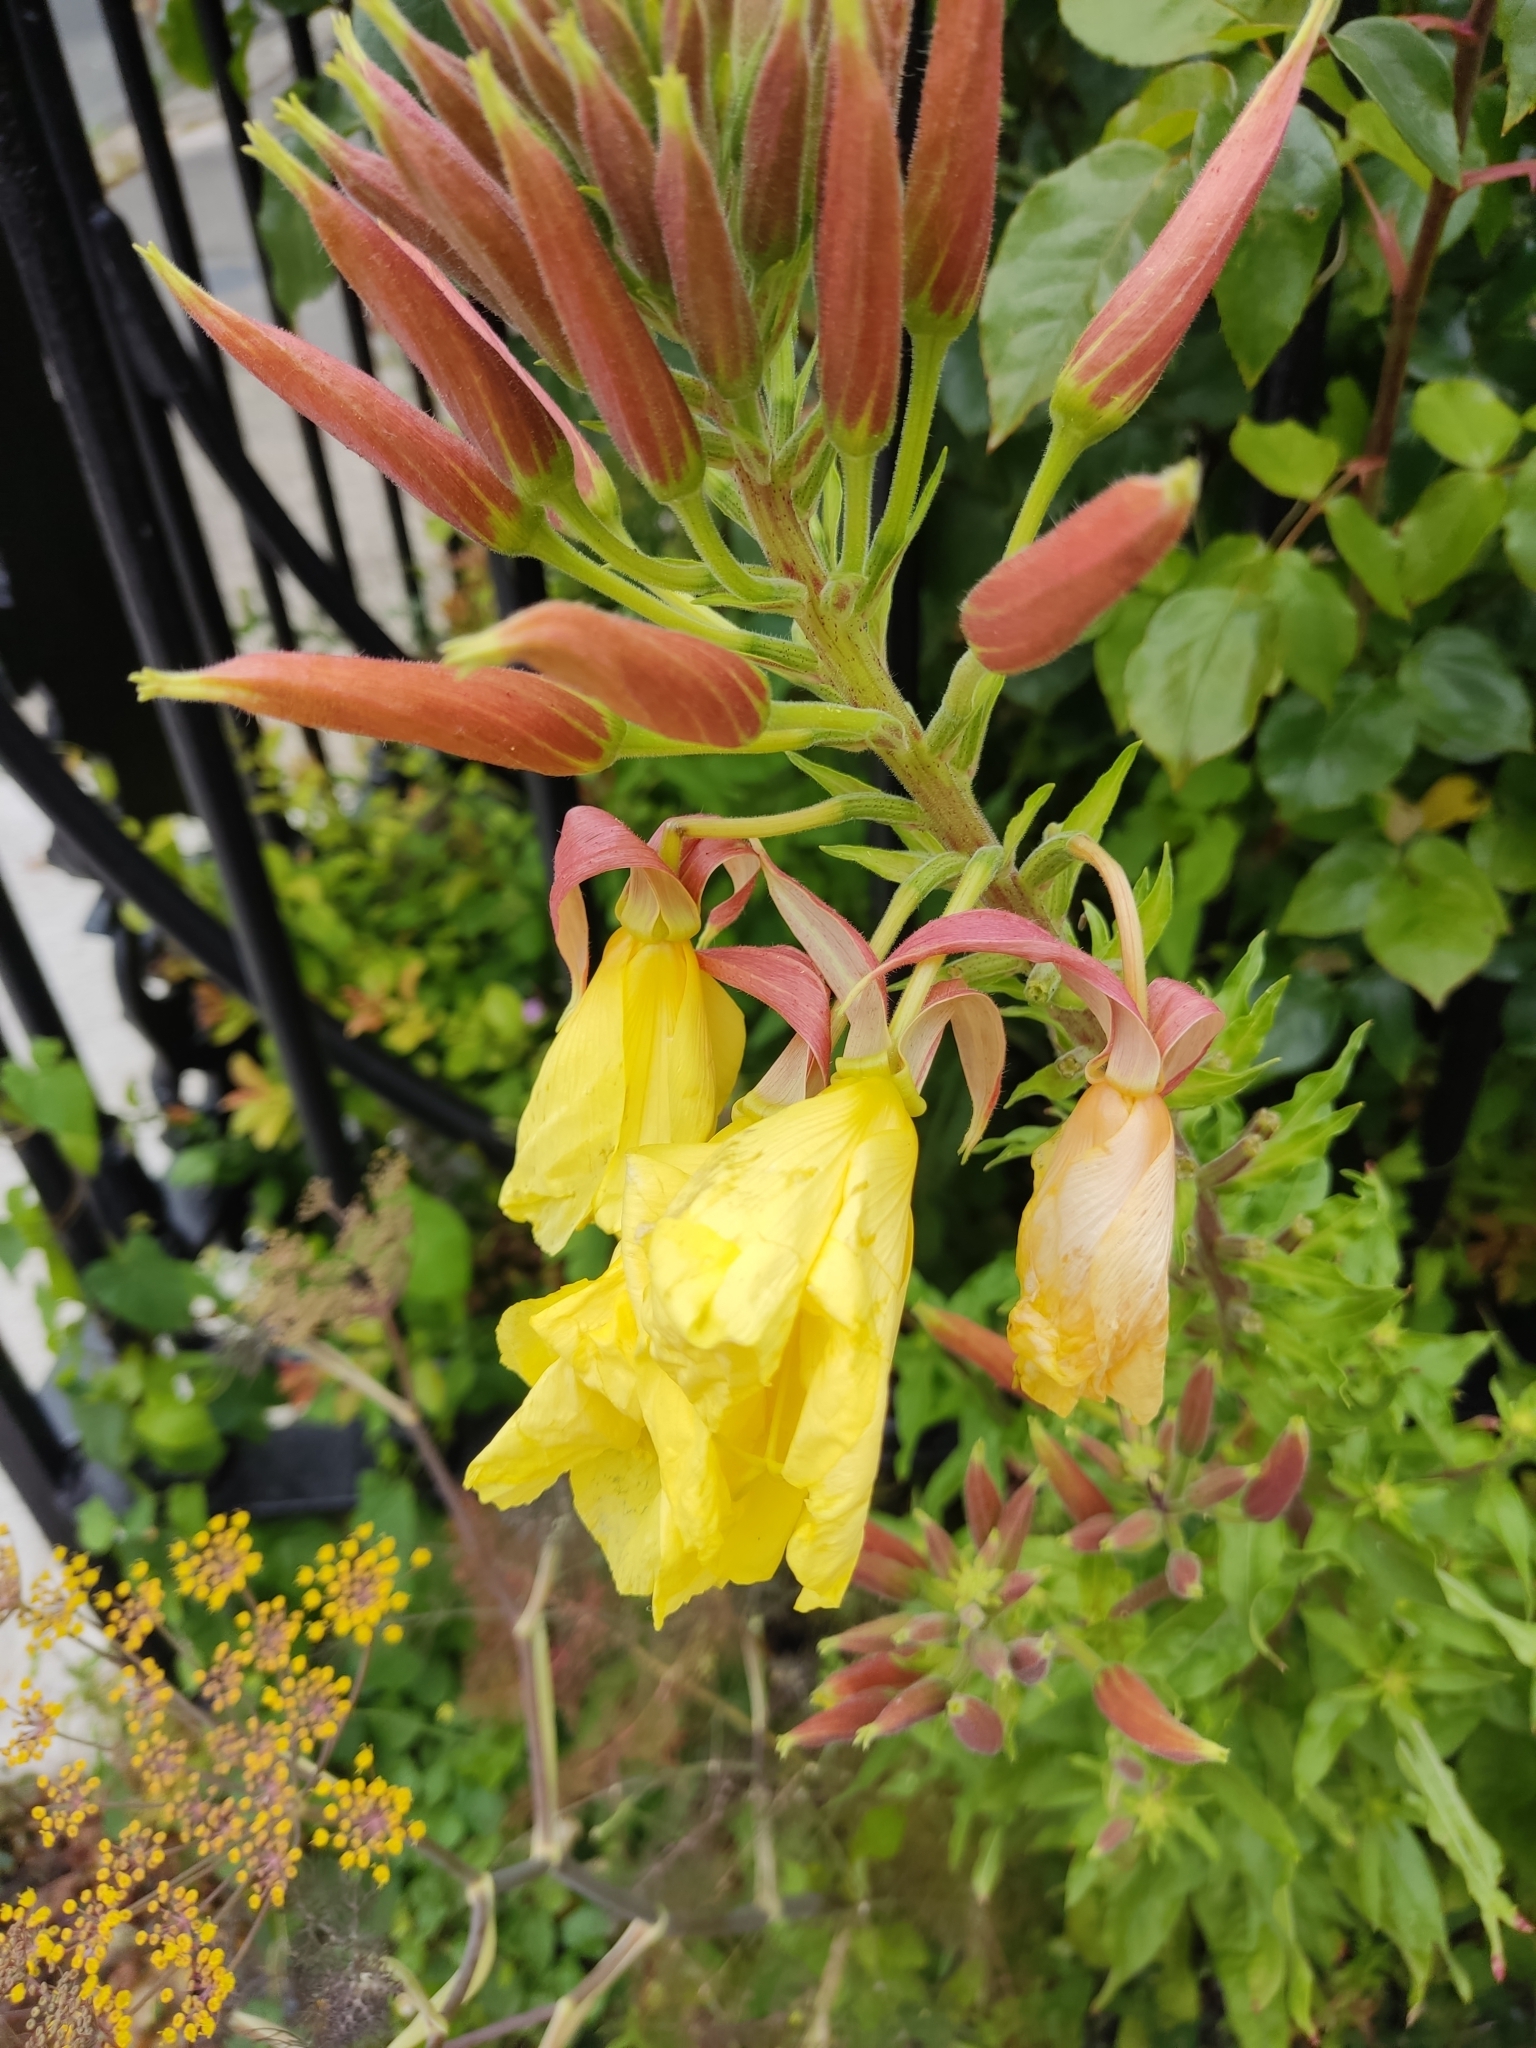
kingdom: Plantae
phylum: Tracheophyta
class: Magnoliopsida
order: Myrtales
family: Onagraceae
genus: Oenothera
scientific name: Oenothera glazioviana
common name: Large-flowered evening-primrose
